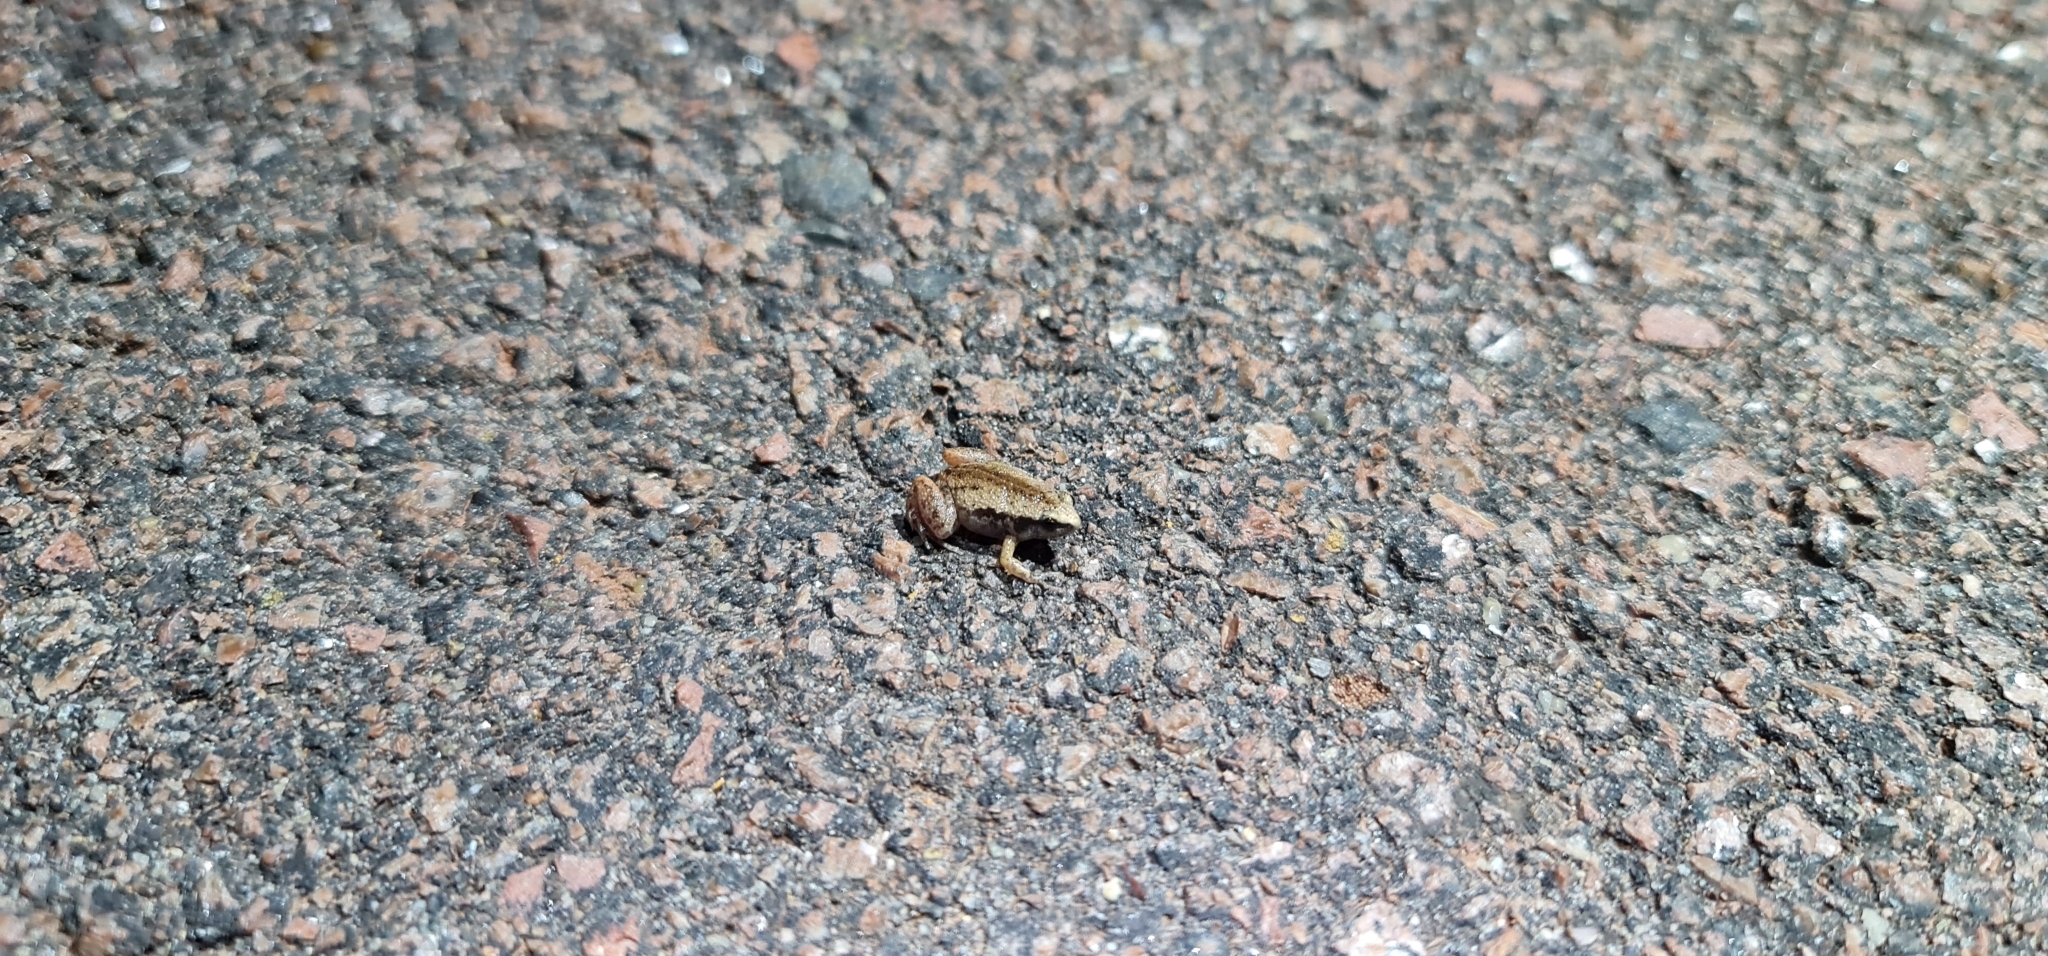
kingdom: Animalia
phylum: Chordata
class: Amphibia
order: Anura
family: Microhylidae
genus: Austrochaperina
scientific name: Austrochaperina adelphe
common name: Northern territory frog
